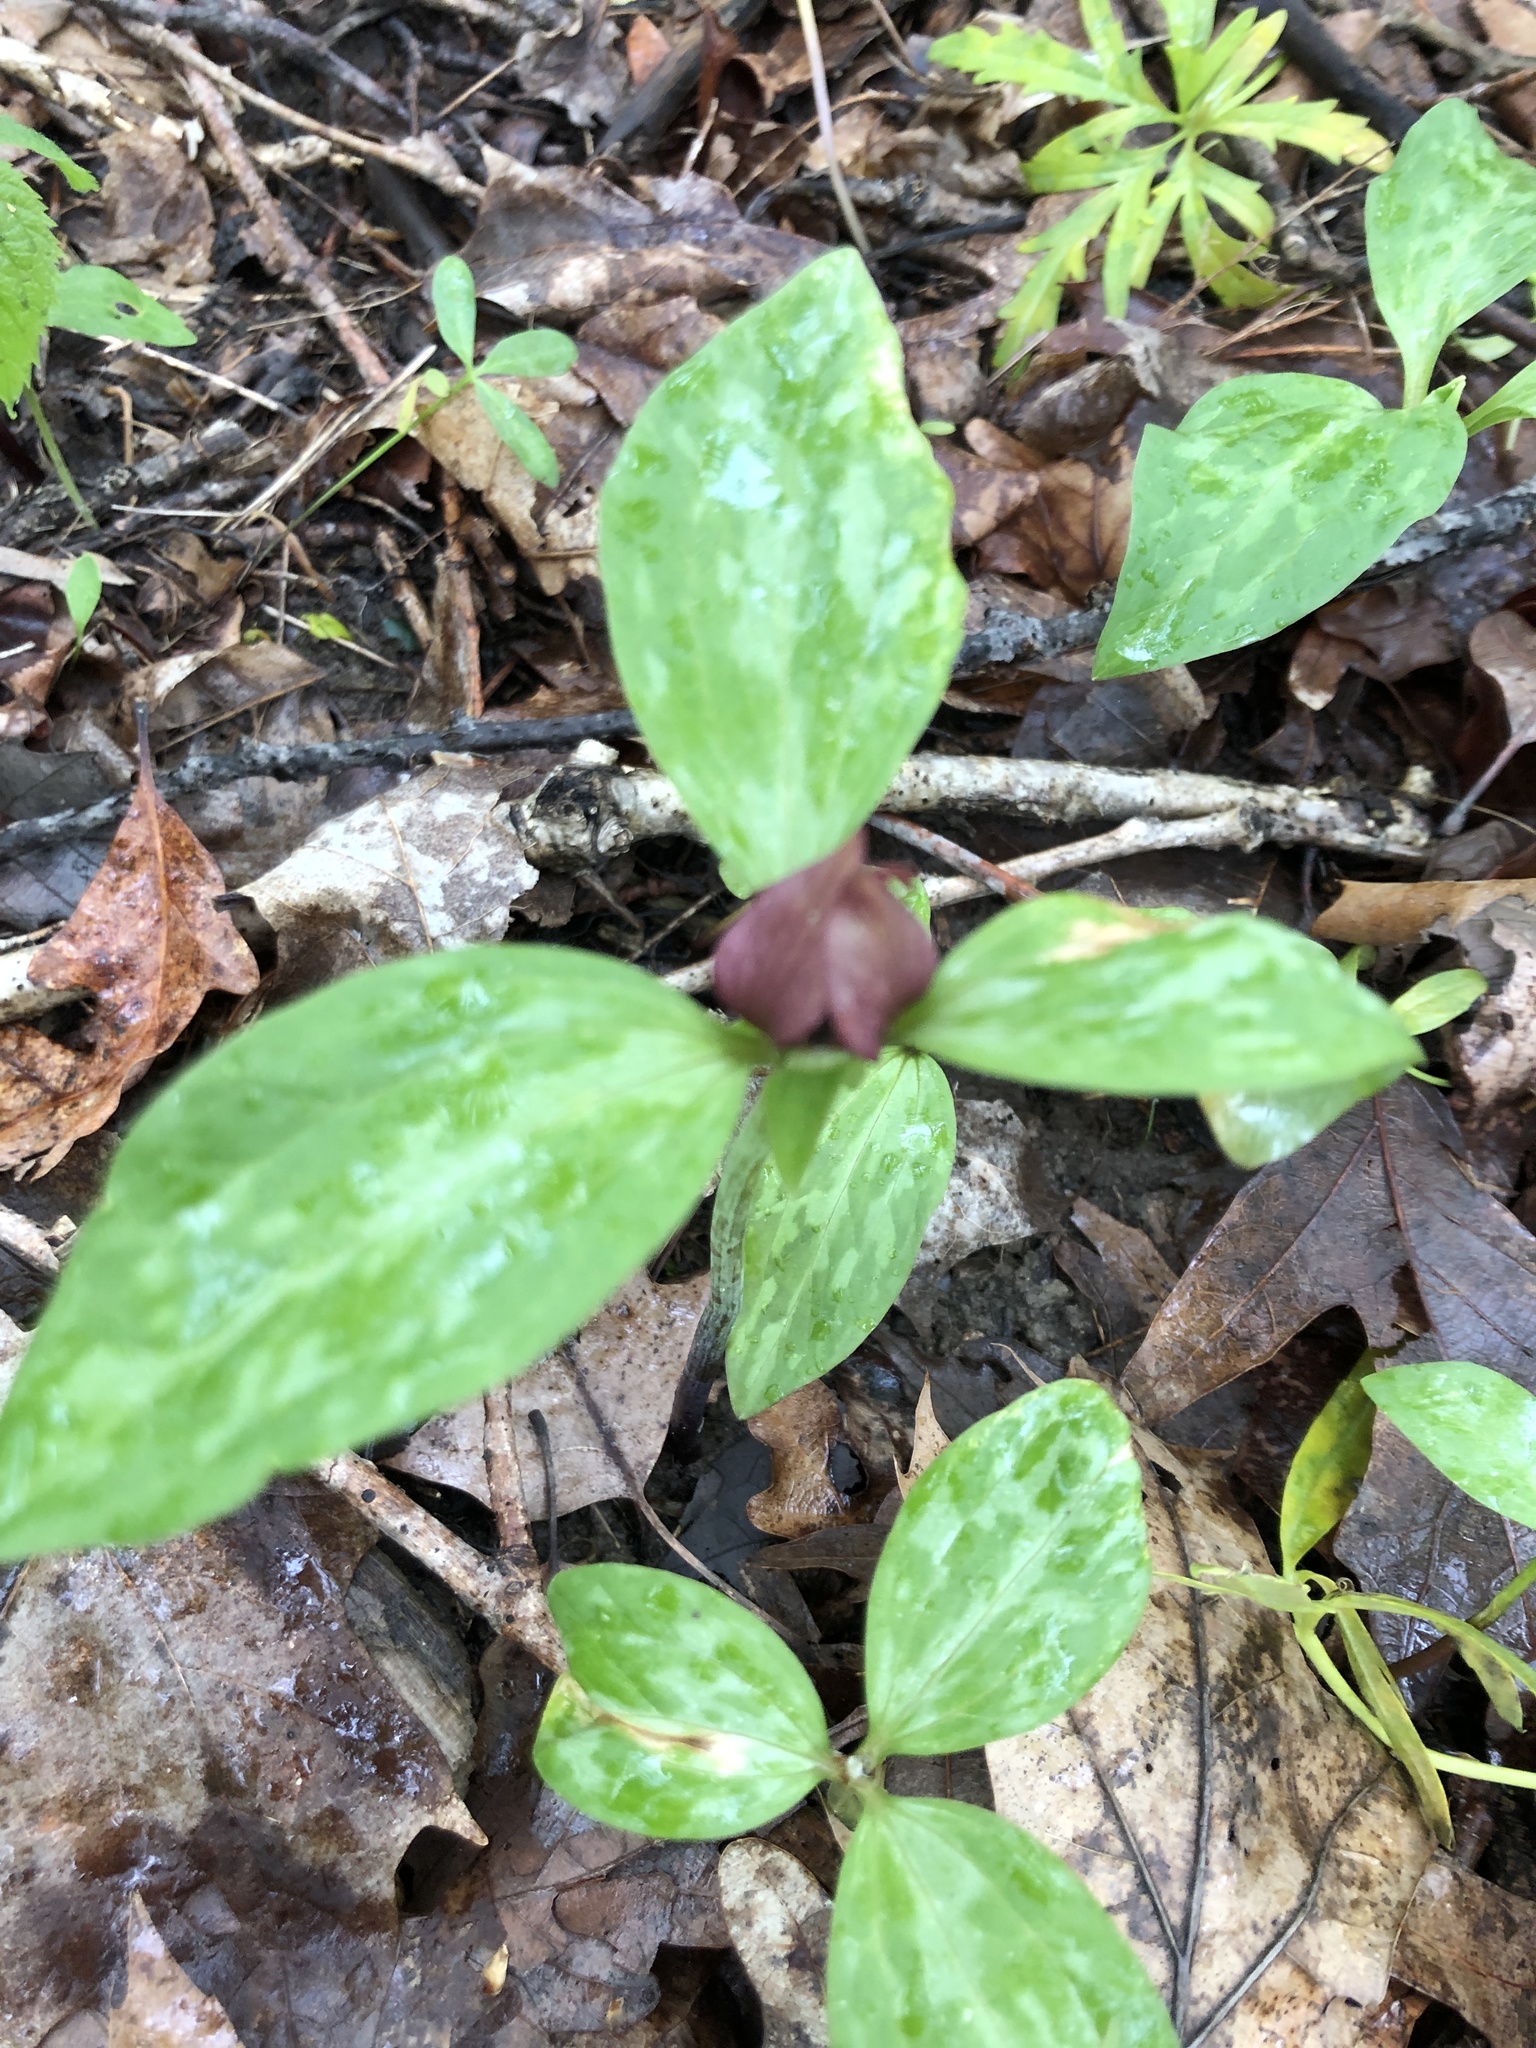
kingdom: Plantae
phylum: Tracheophyta
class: Liliopsida
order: Liliales
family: Melanthiaceae
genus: Trillium
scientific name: Trillium recurvatum
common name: Bloody butcher
